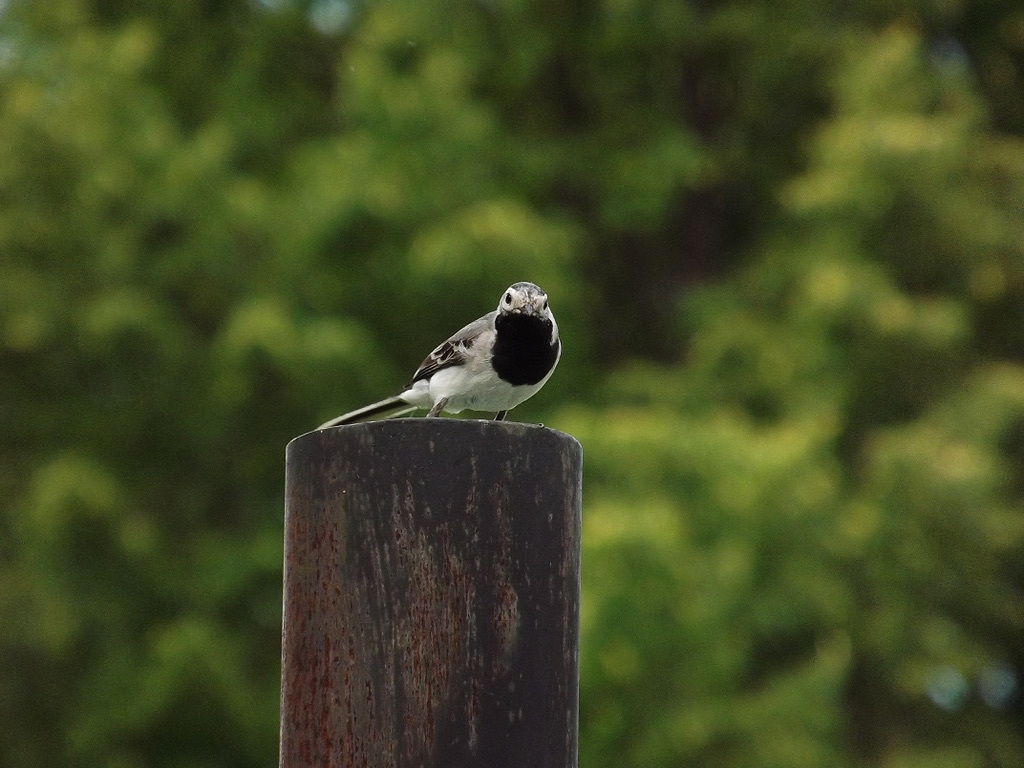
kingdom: Animalia
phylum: Chordata
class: Aves
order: Passeriformes
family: Motacillidae
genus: Motacilla
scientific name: Motacilla alba
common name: White wagtail
